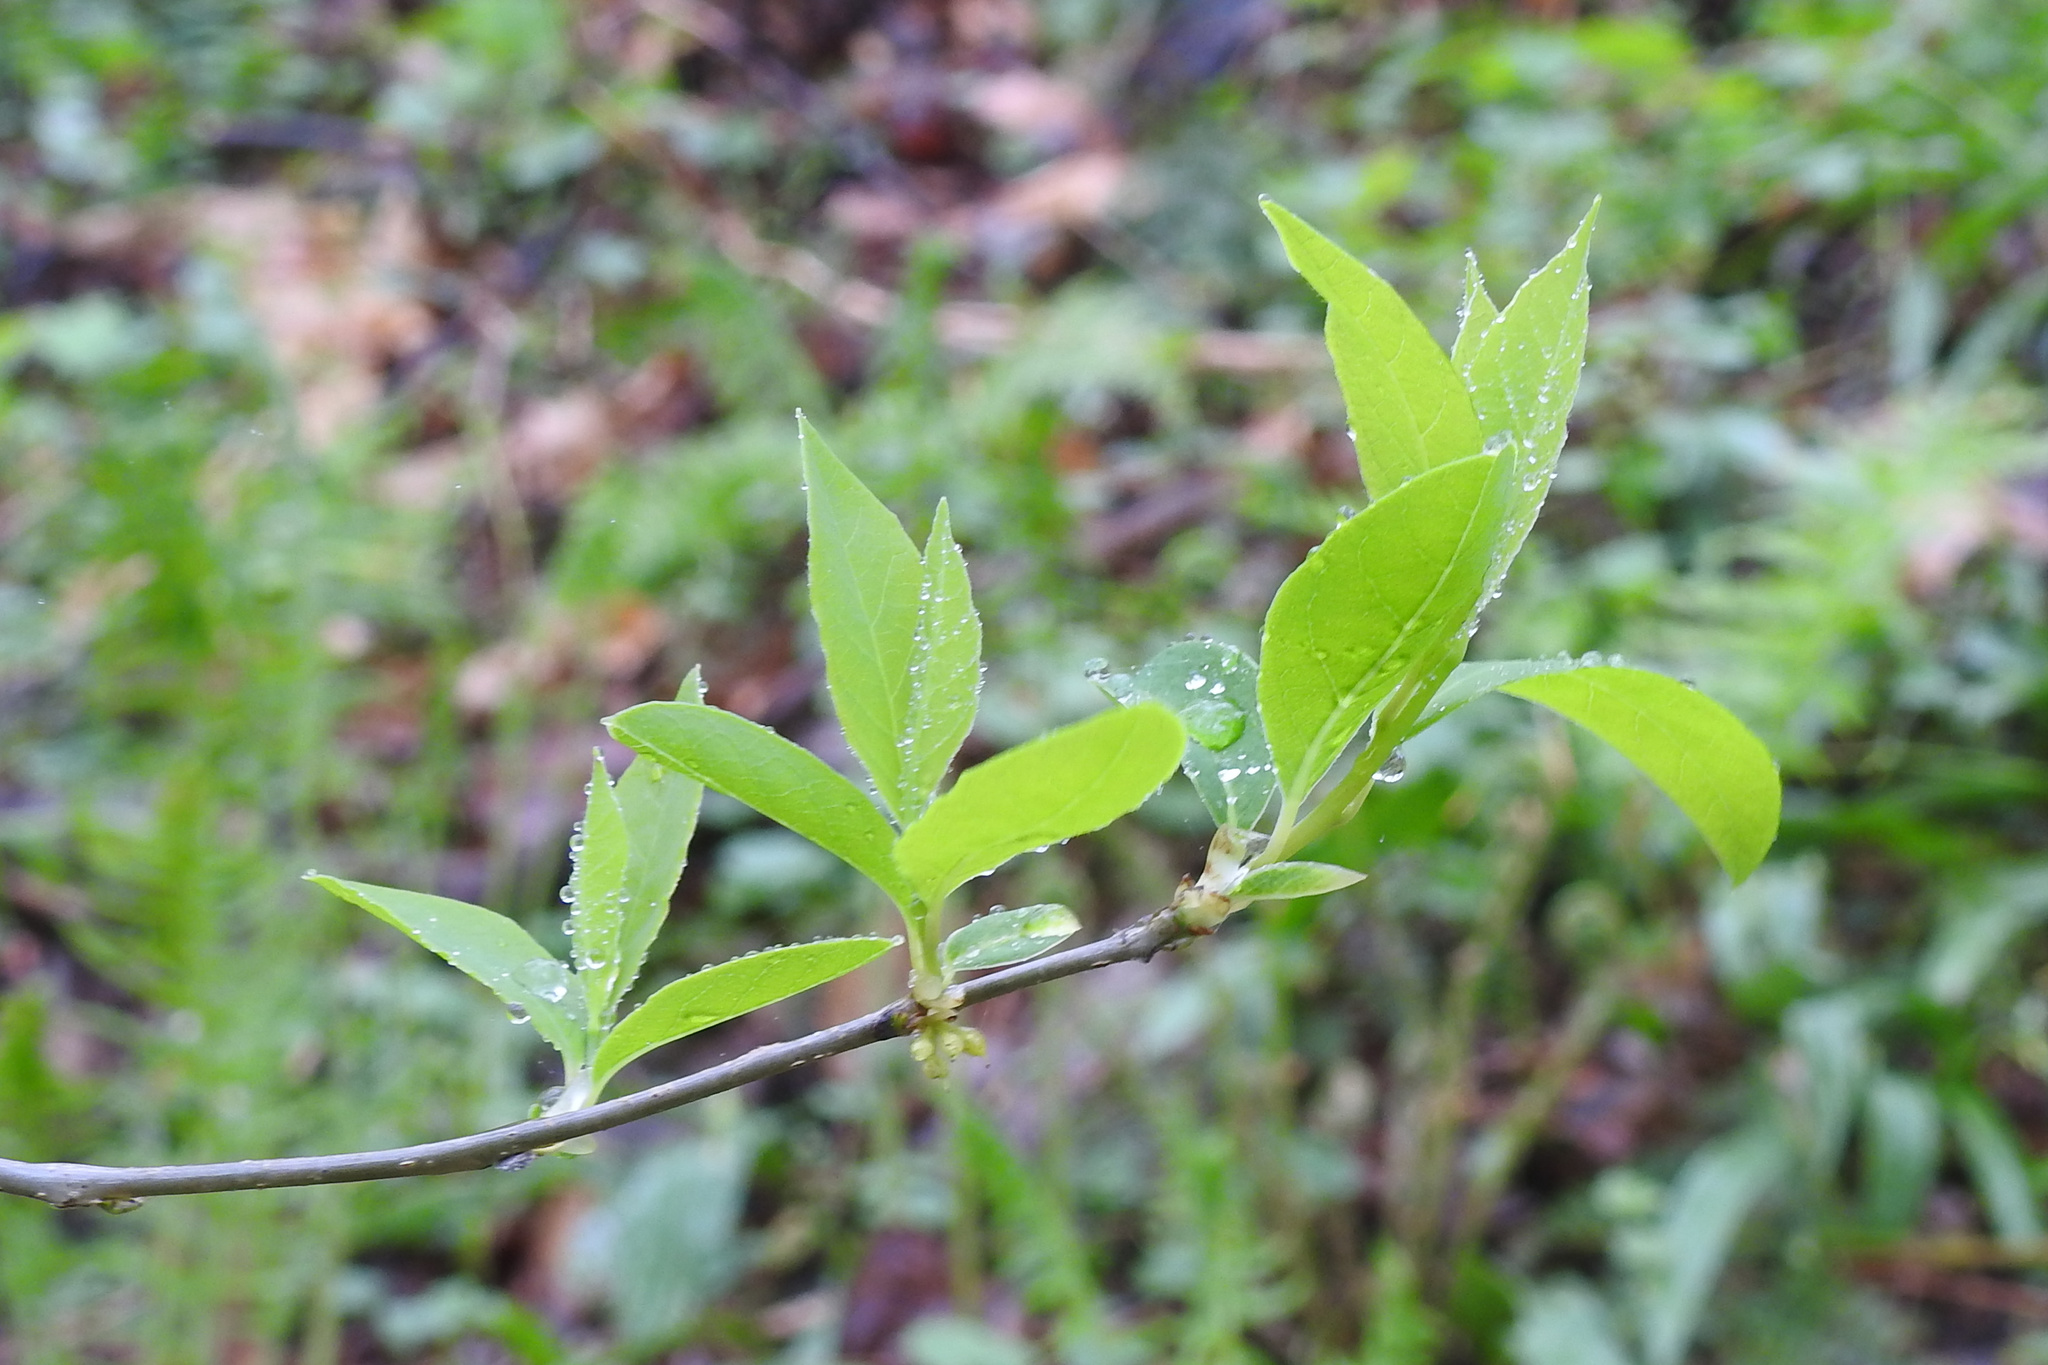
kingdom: Plantae
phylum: Tracheophyta
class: Magnoliopsida
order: Laurales
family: Lauraceae
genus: Lindera
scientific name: Lindera benzoin
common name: Spicebush
